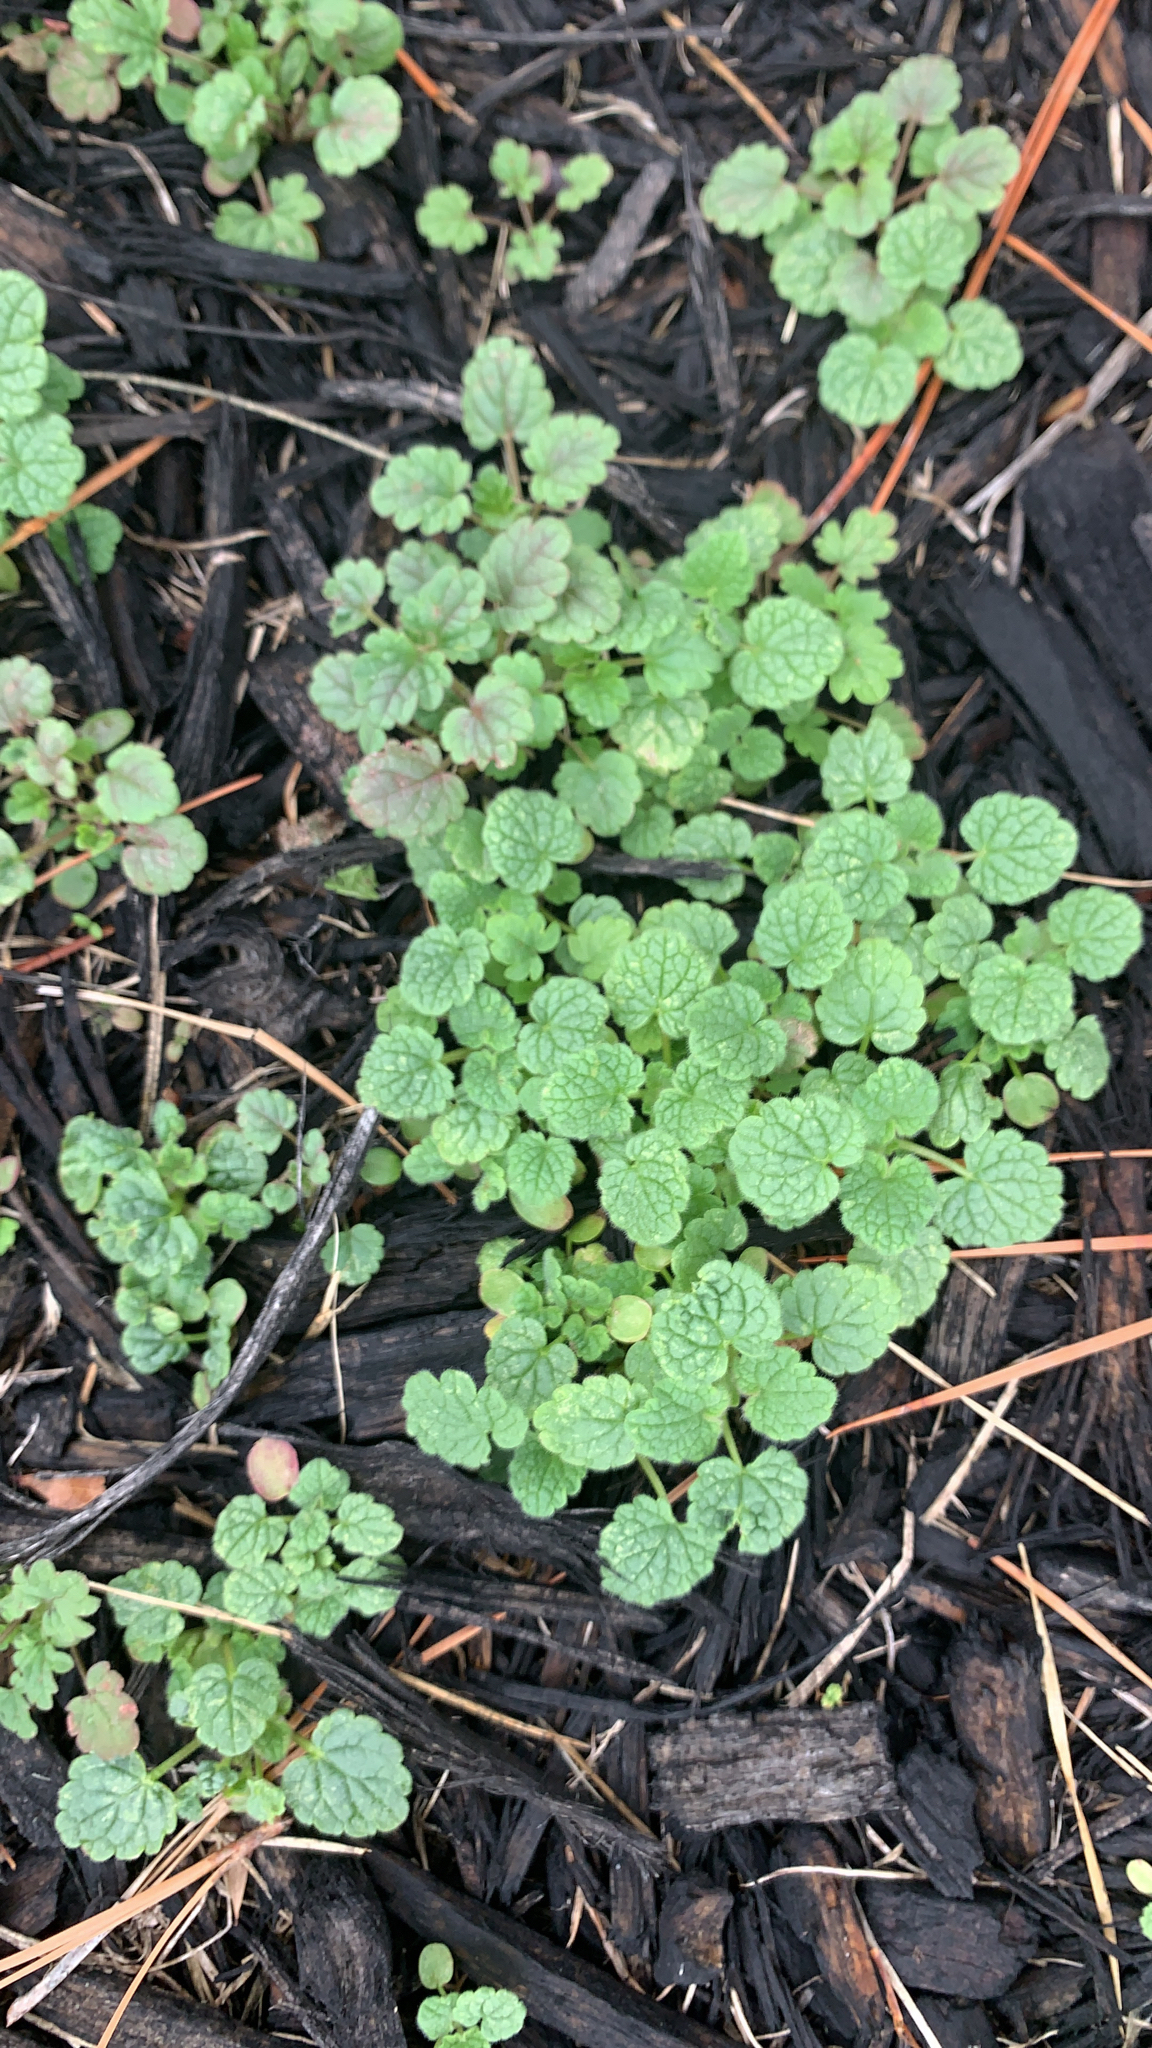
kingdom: Plantae
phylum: Tracheophyta
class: Magnoliopsida
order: Lamiales
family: Lamiaceae
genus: Lamium
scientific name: Lamium purpureum
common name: Red dead-nettle
